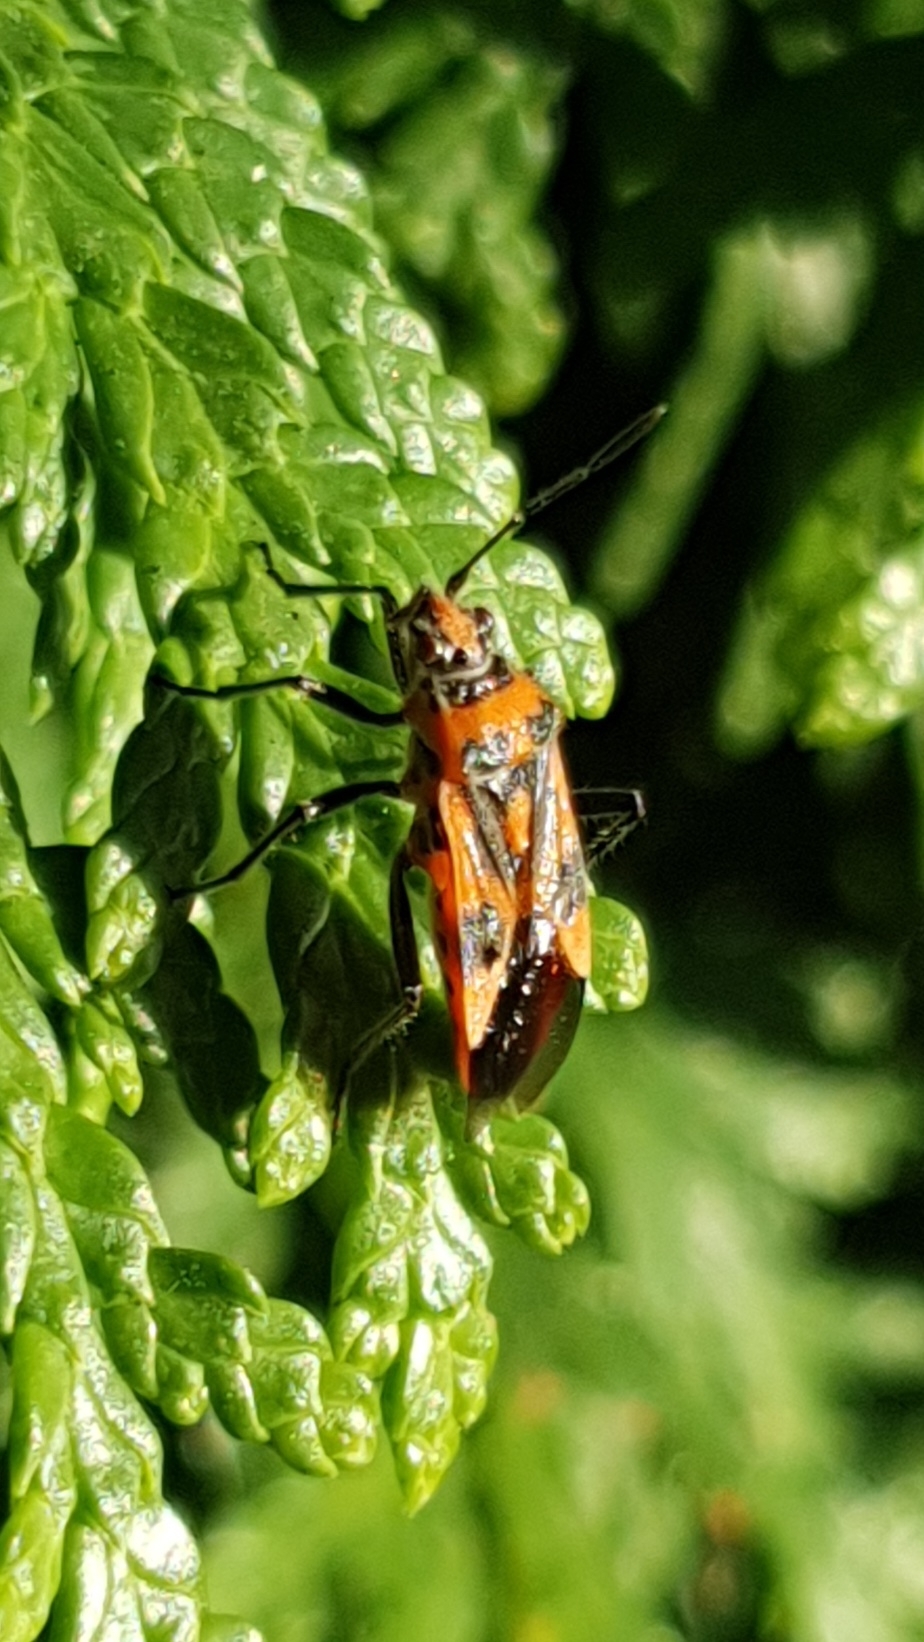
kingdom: Animalia
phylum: Arthropoda
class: Insecta
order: Hemiptera
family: Rhopalidae
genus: Corizus
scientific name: Corizus hyoscyami
